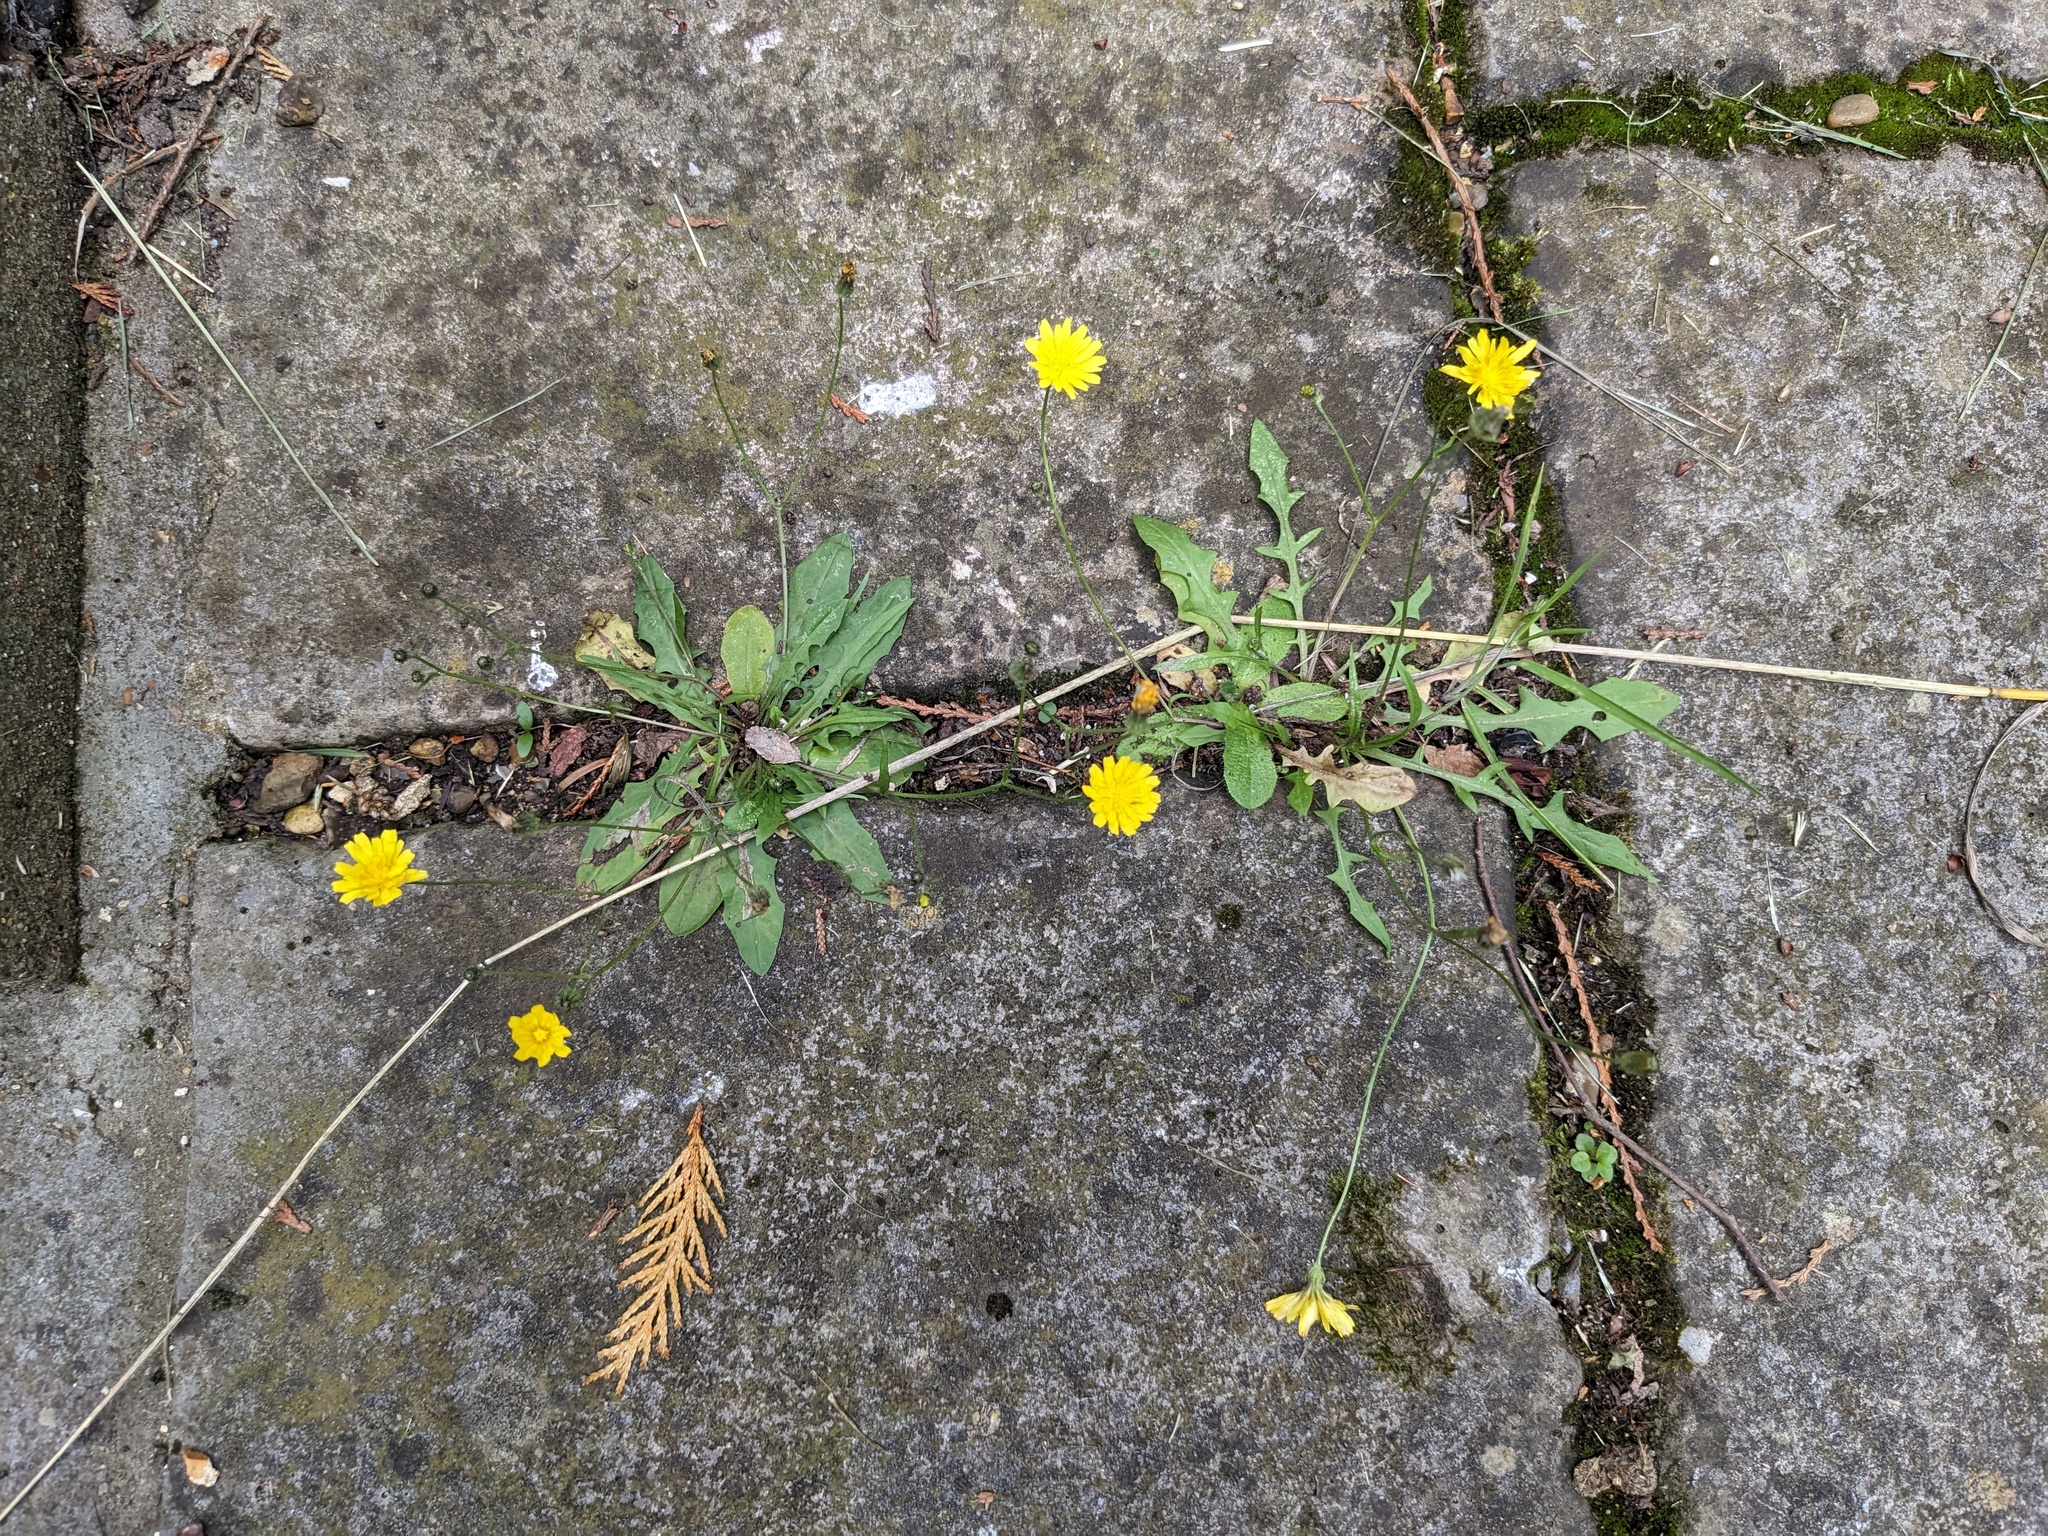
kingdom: Plantae
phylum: Tracheophyta
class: Magnoliopsida
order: Asterales
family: Asteraceae
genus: Crepis
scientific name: Crepis capillaris
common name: Smooth hawksbeard
